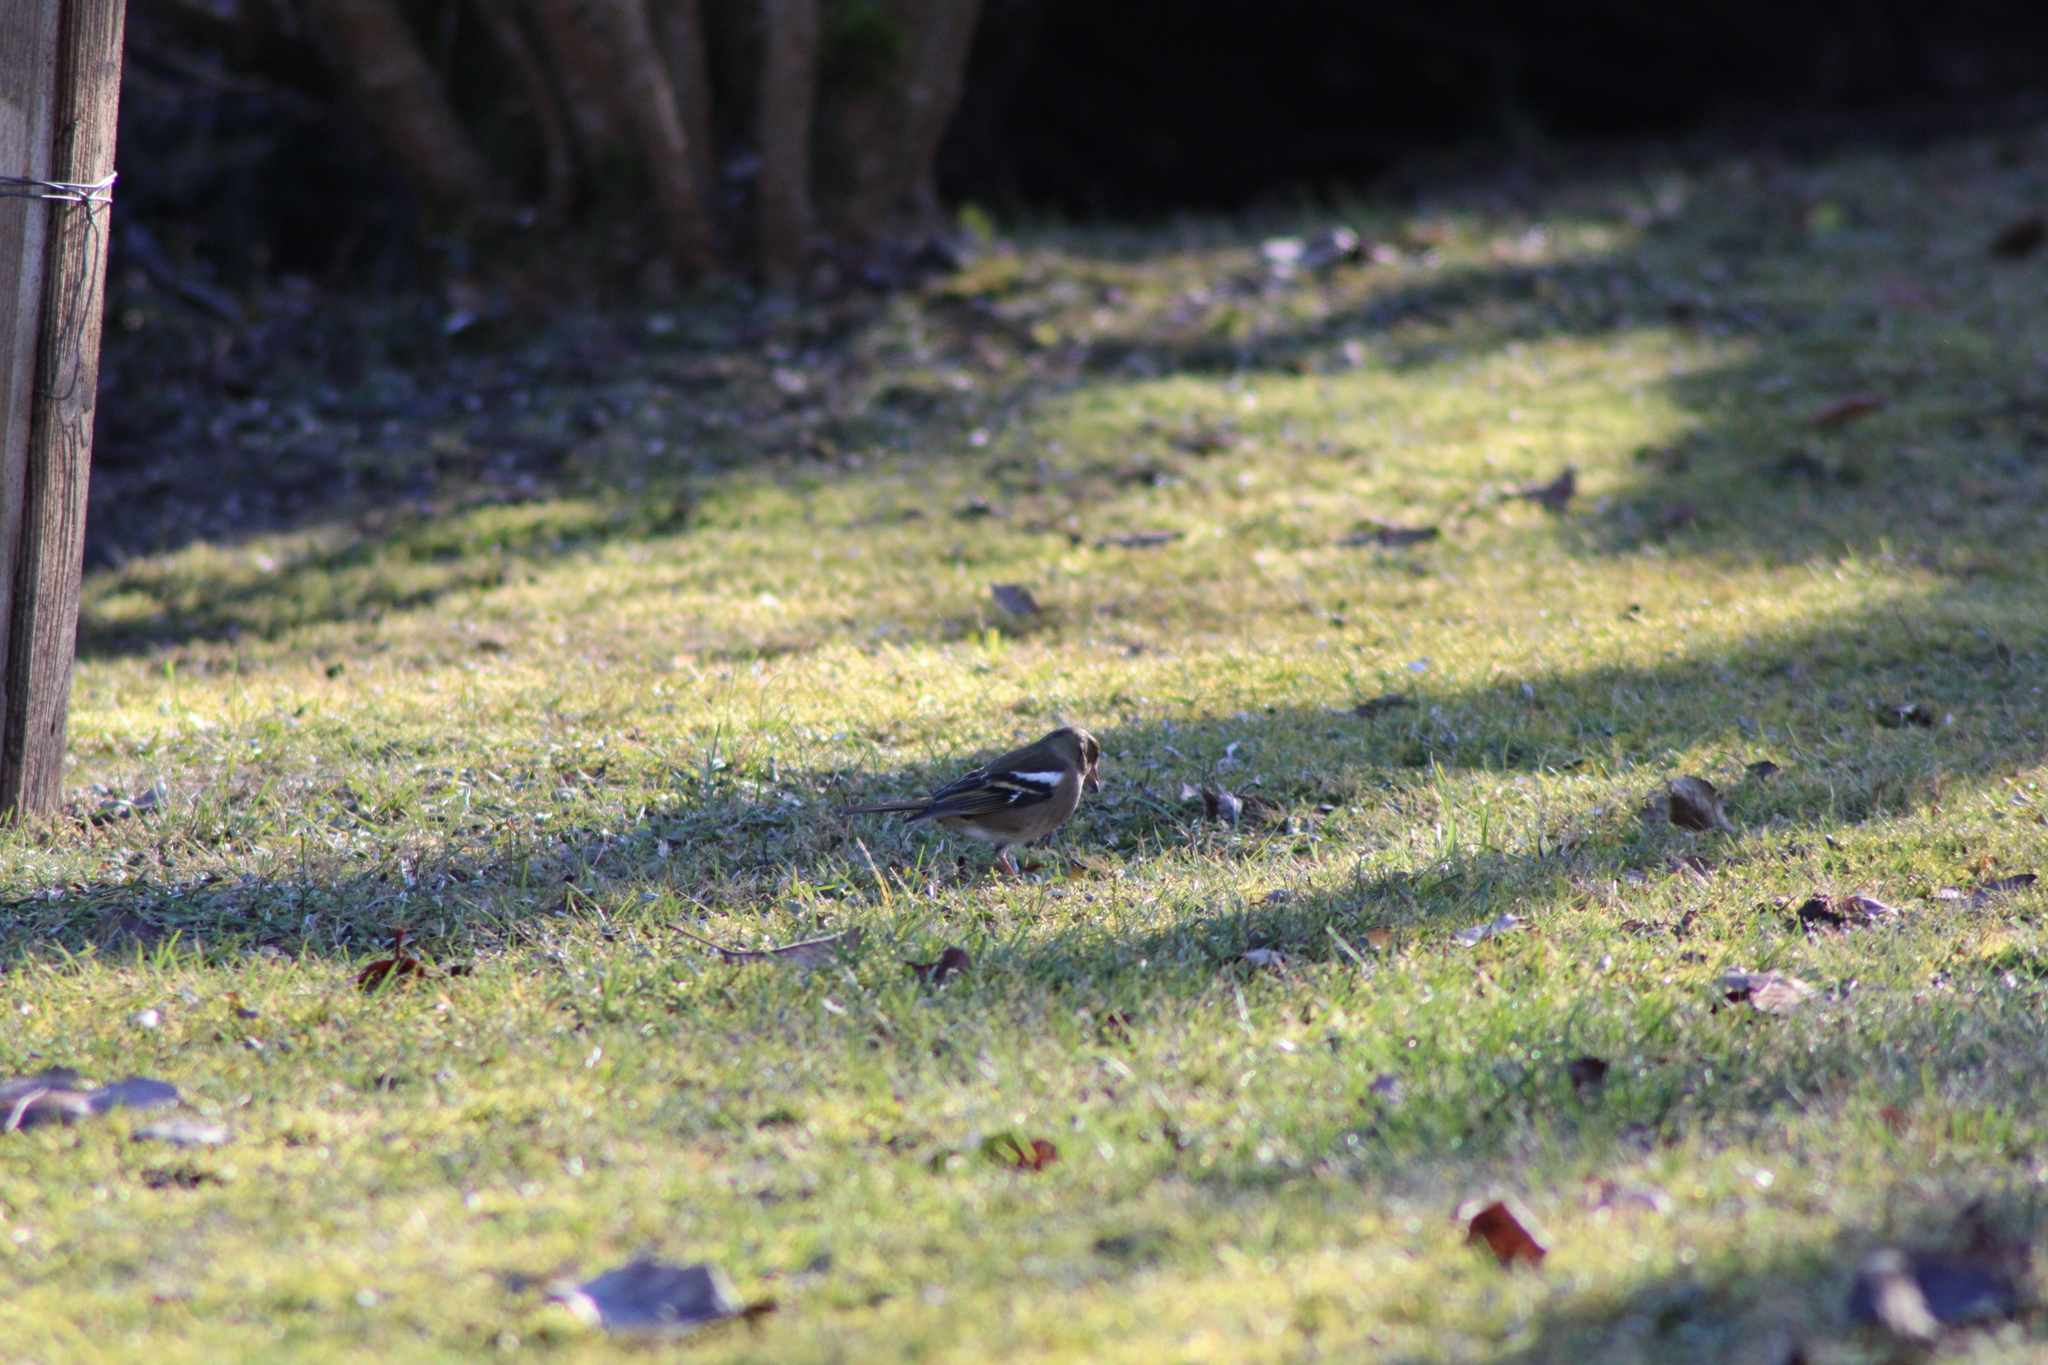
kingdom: Animalia
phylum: Chordata
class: Aves
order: Passeriformes
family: Fringillidae
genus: Fringilla
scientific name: Fringilla coelebs
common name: Common chaffinch
